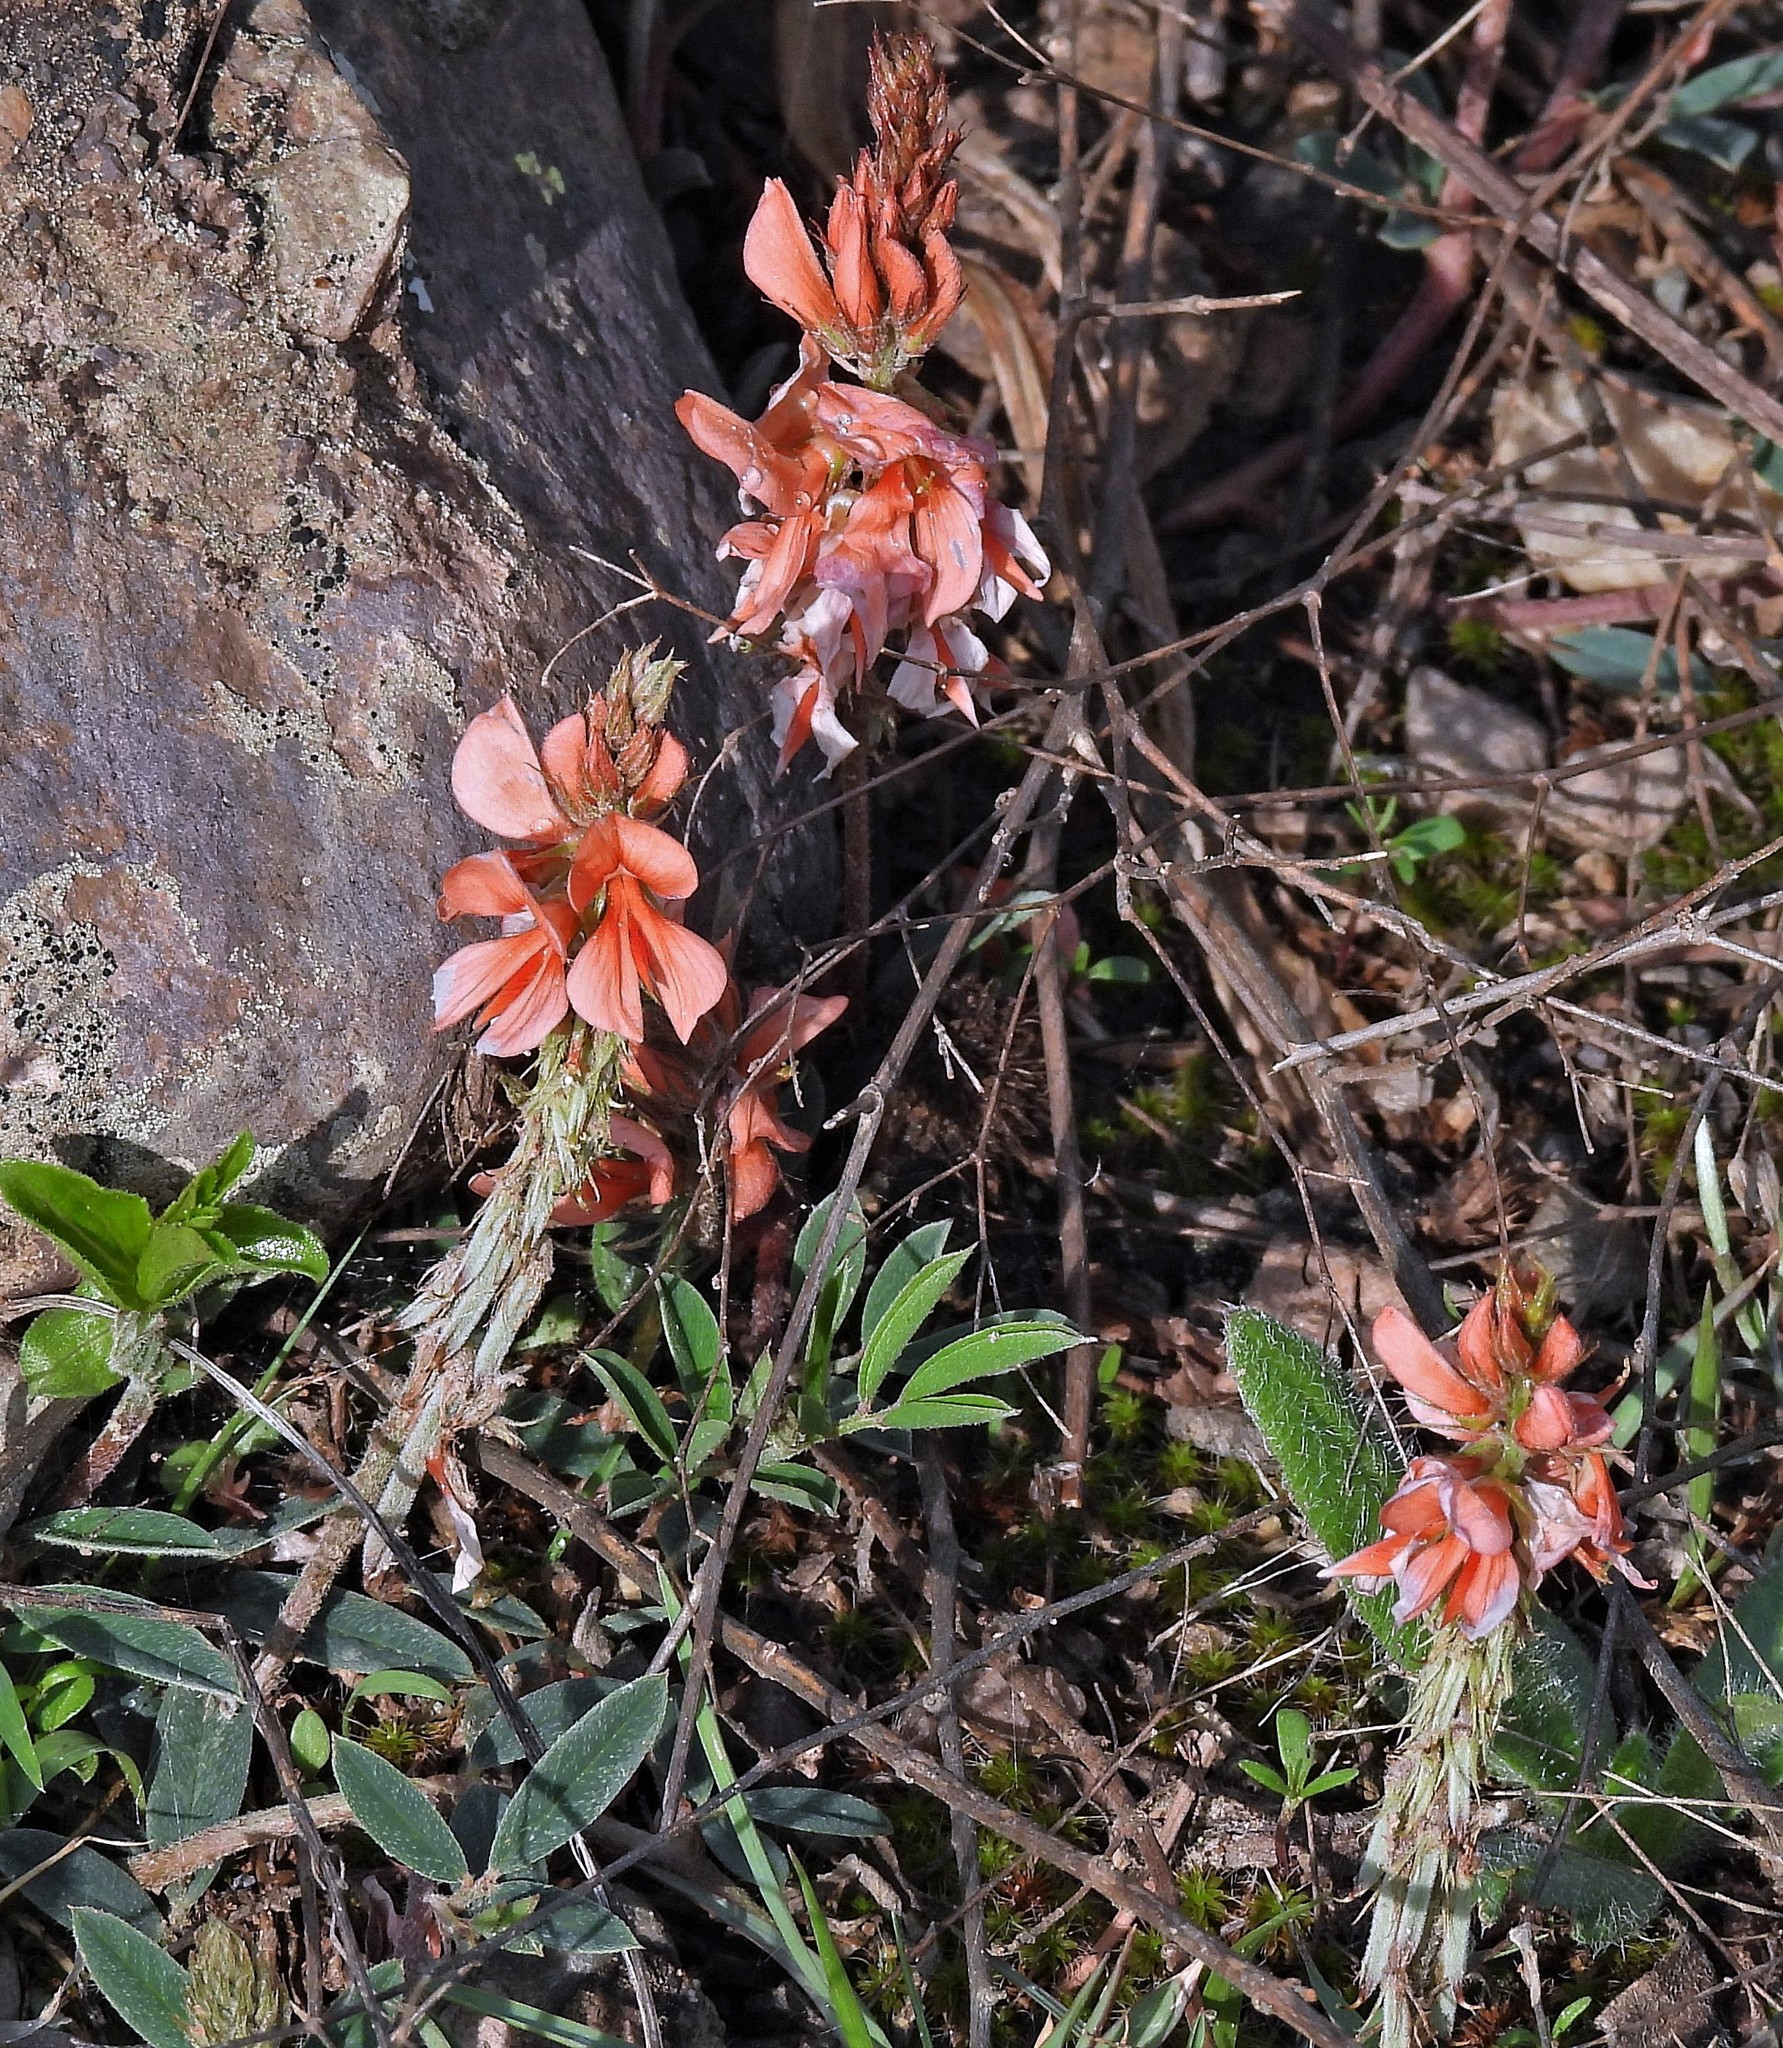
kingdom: Plantae
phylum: Tracheophyta
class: Magnoliopsida
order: Fabales
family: Fabaceae
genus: Indigofera
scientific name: Indigofera campestris
